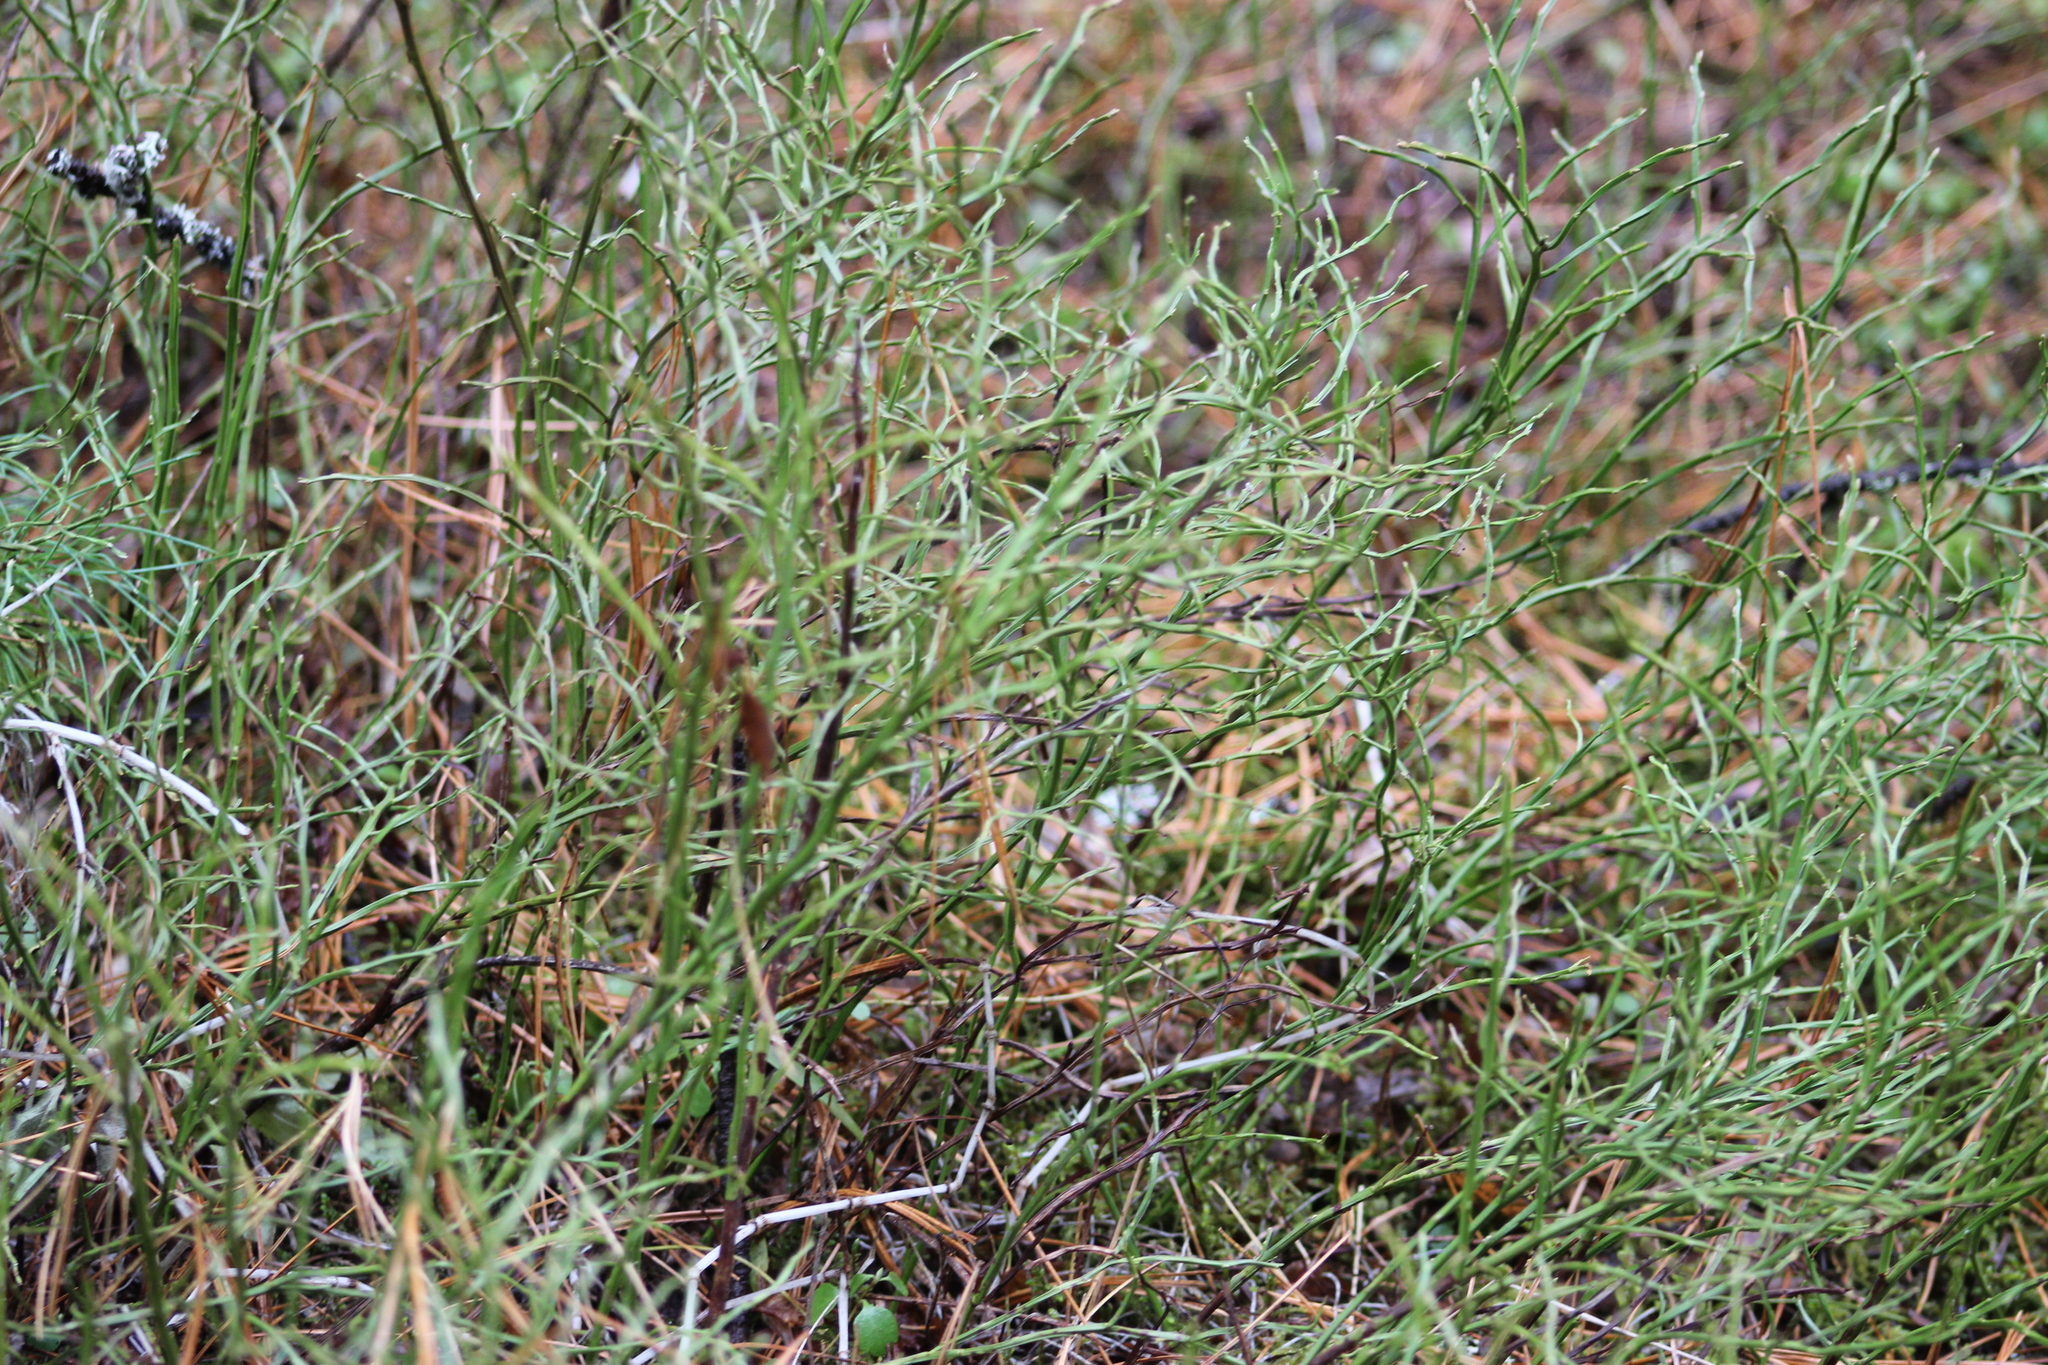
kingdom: Plantae
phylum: Tracheophyta
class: Magnoliopsida
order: Ericales
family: Ericaceae
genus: Vaccinium
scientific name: Vaccinium myrtillus
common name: Bilberry
